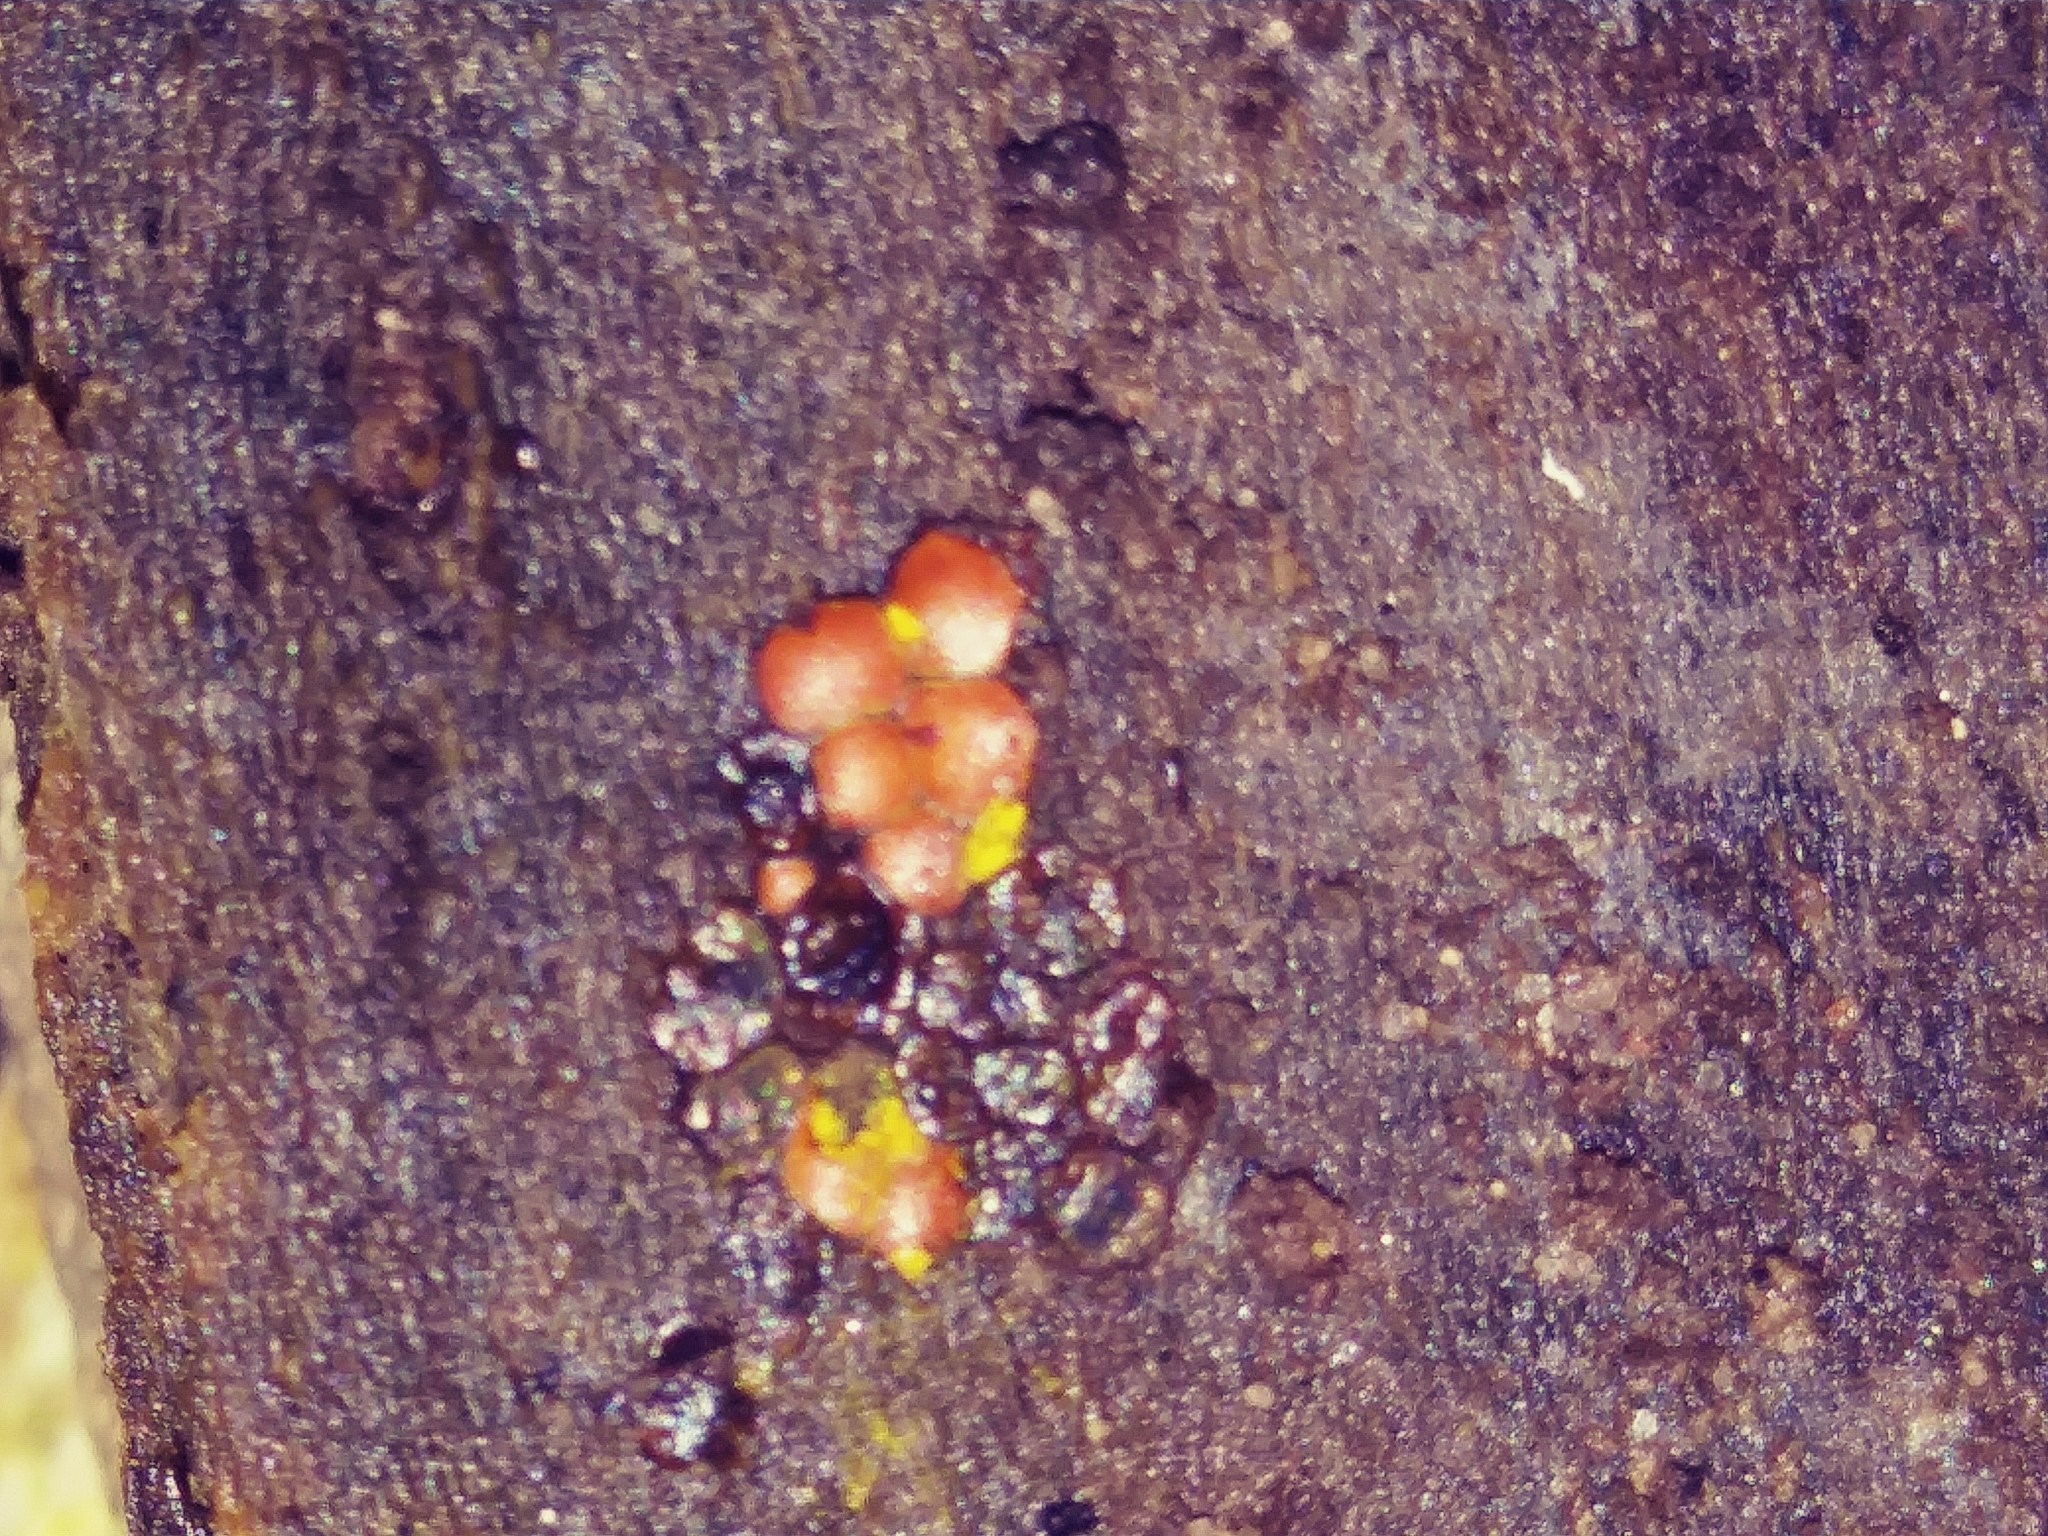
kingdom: Protozoa
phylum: Mycetozoa
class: Myxomycetes
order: Trichiales
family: Trichiaceae
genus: Perichaena
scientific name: Perichaena depressa
